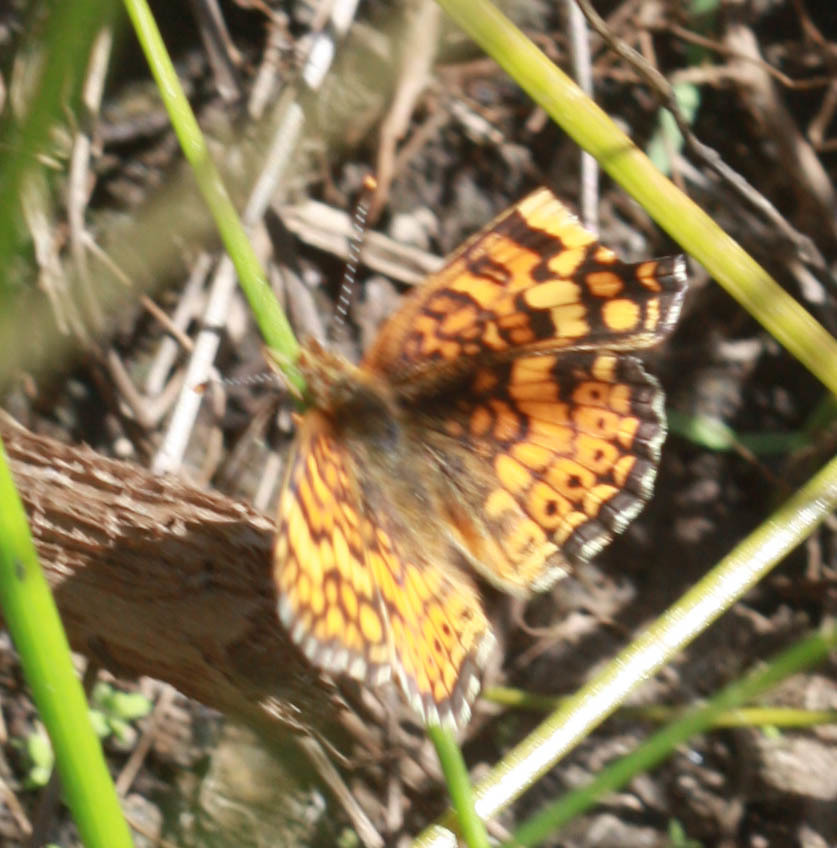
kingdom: Animalia
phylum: Arthropoda
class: Insecta
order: Lepidoptera
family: Nymphalidae
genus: Eresia
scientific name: Eresia aveyrona
